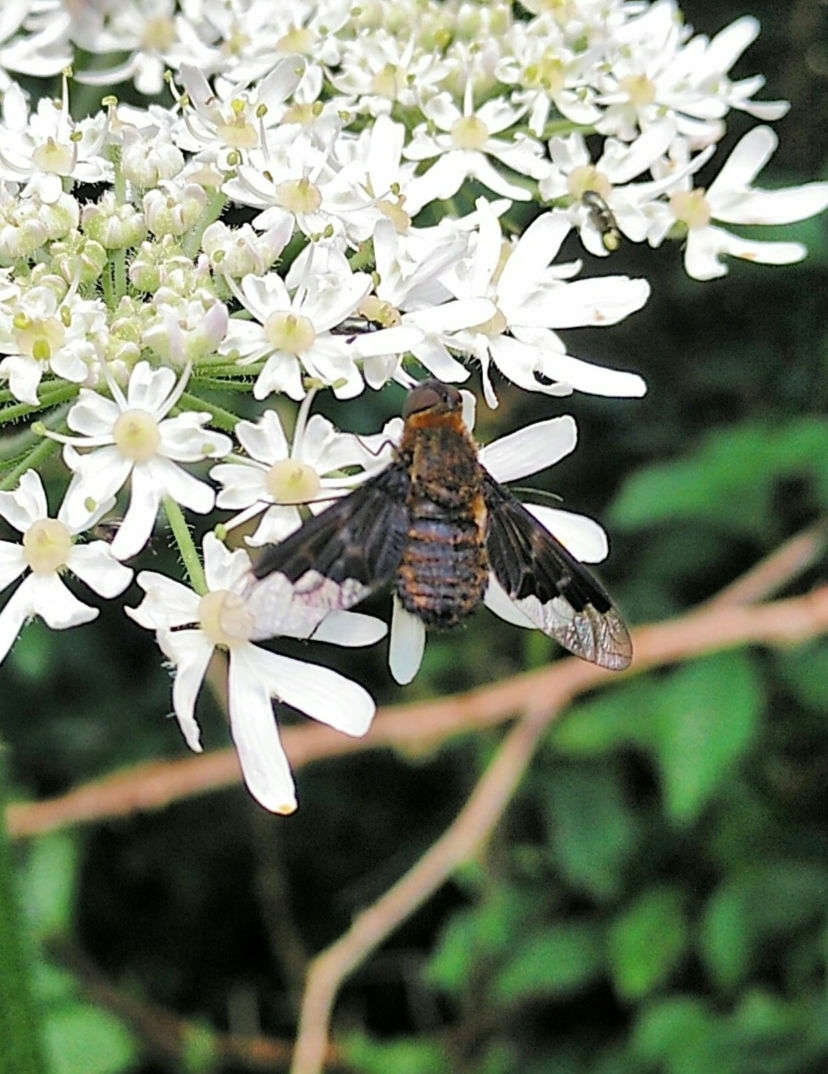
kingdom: Animalia
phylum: Arthropoda
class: Insecta
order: Diptera
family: Bombyliidae
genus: Hemipenthes
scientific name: Hemipenthes morio
